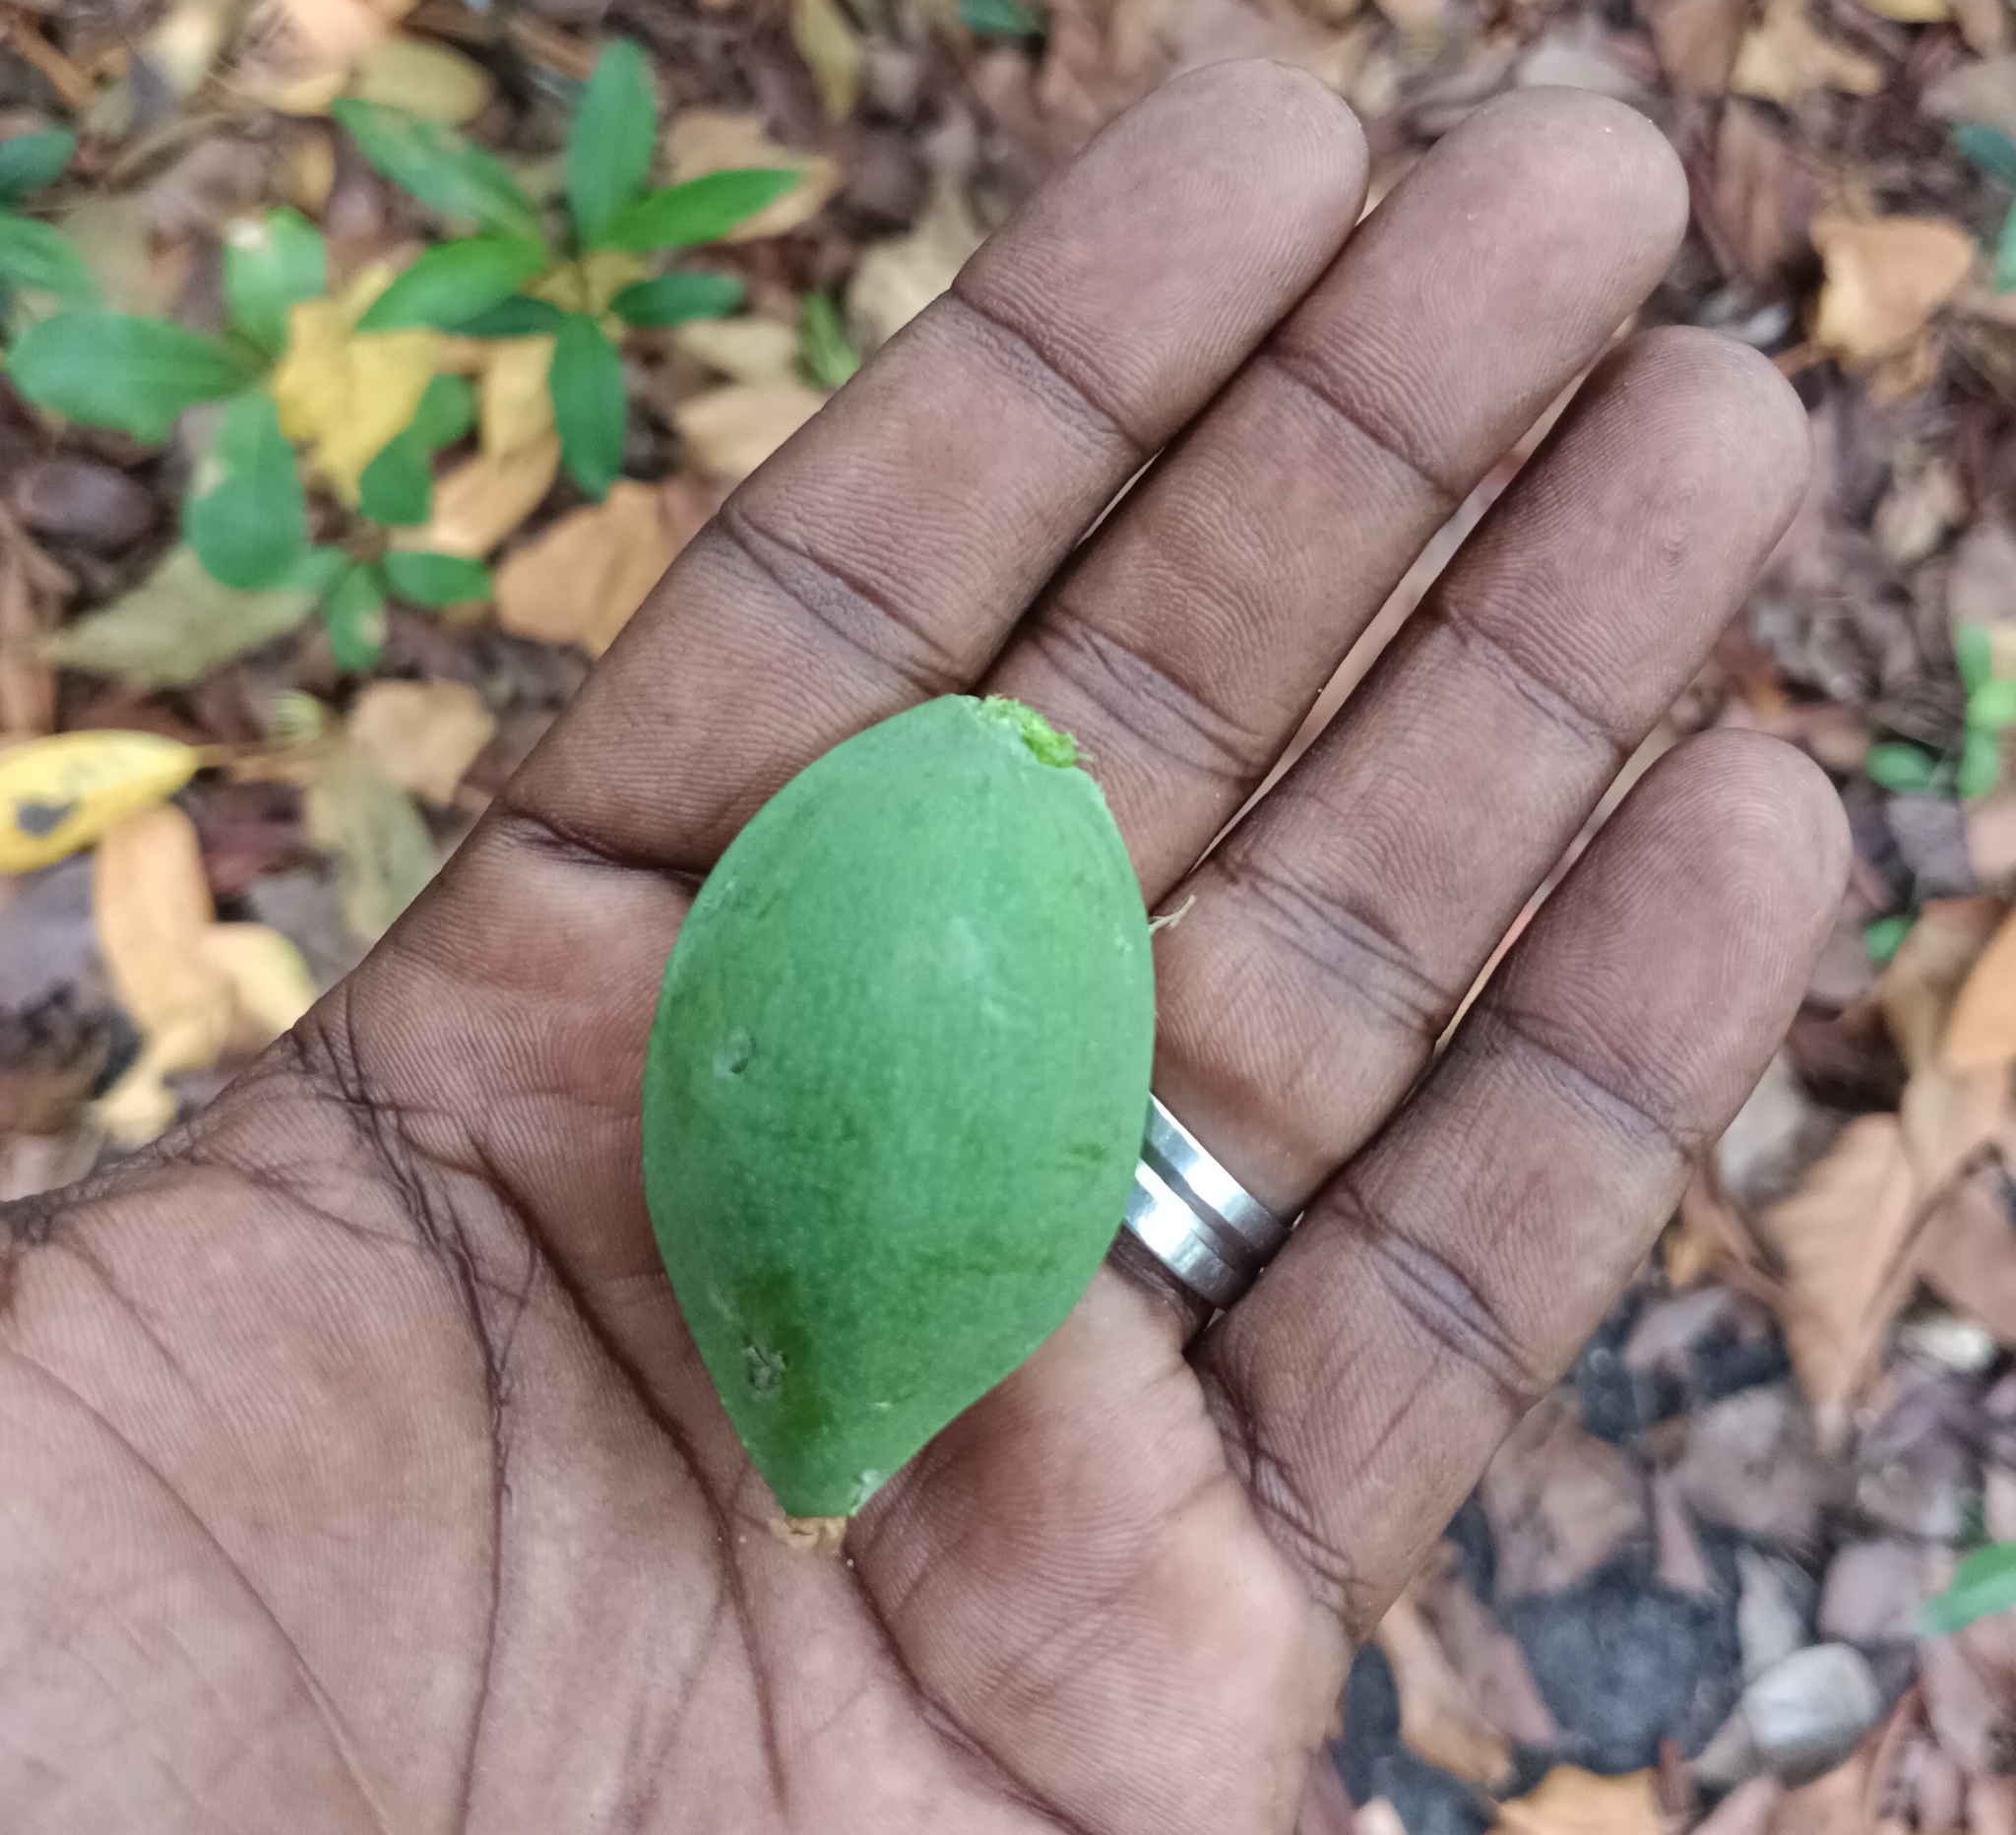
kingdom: Plantae
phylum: Tracheophyta
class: Magnoliopsida
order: Myrtales
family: Combretaceae
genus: Terminalia
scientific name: Terminalia catappa
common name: Tropical almond
